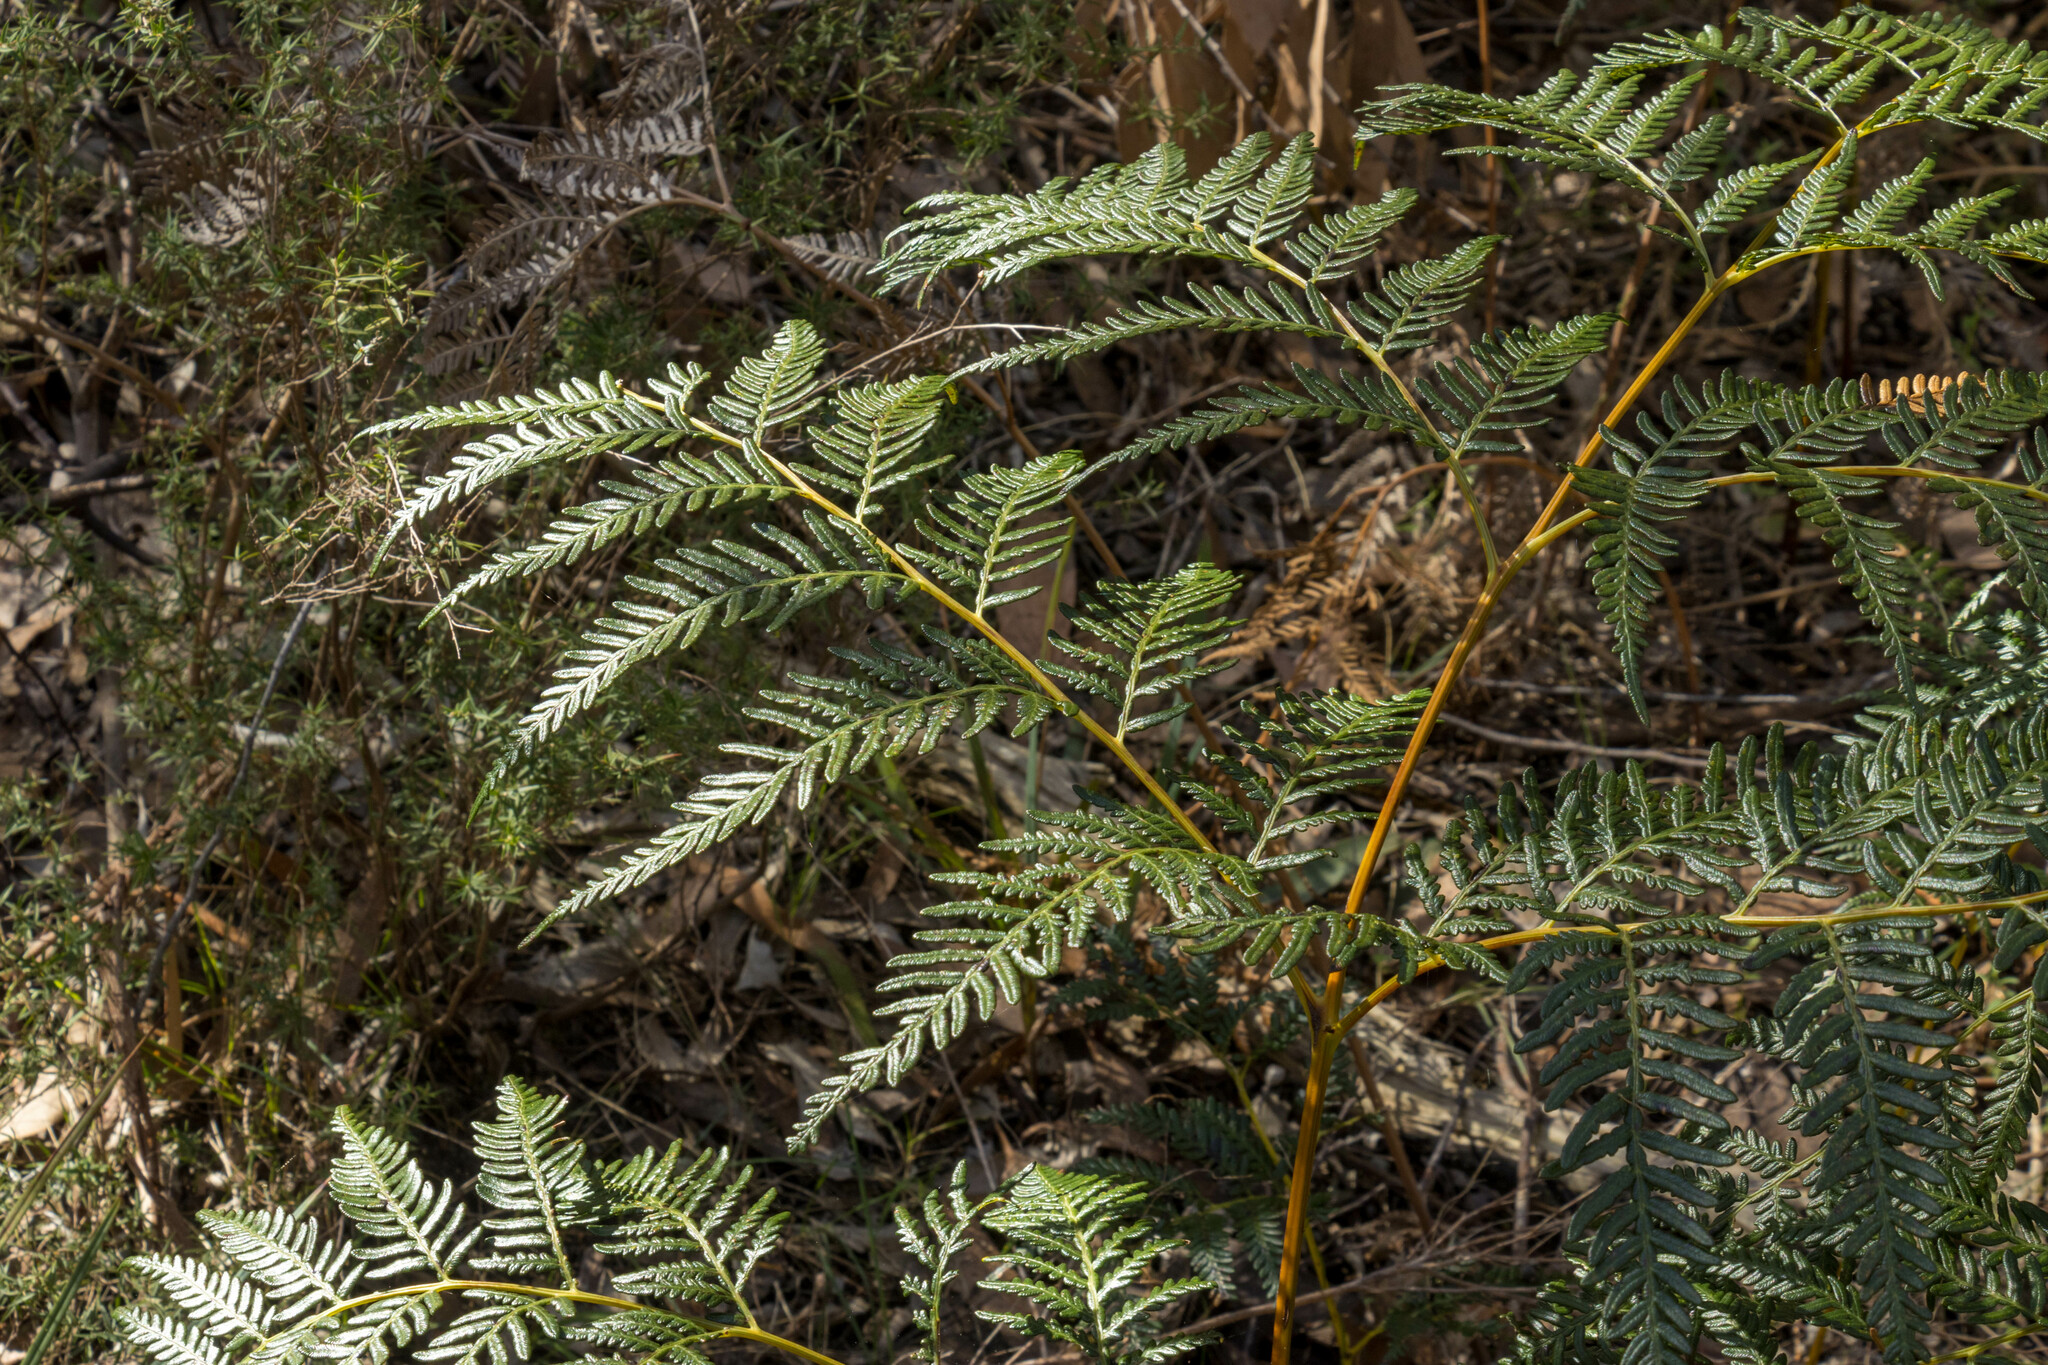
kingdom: Plantae
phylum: Tracheophyta
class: Polypodiopsida
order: Polypodiales
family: Dennstaedtiaceae
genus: Pteridium
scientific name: Pteridium esculentum
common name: Bracken fern
